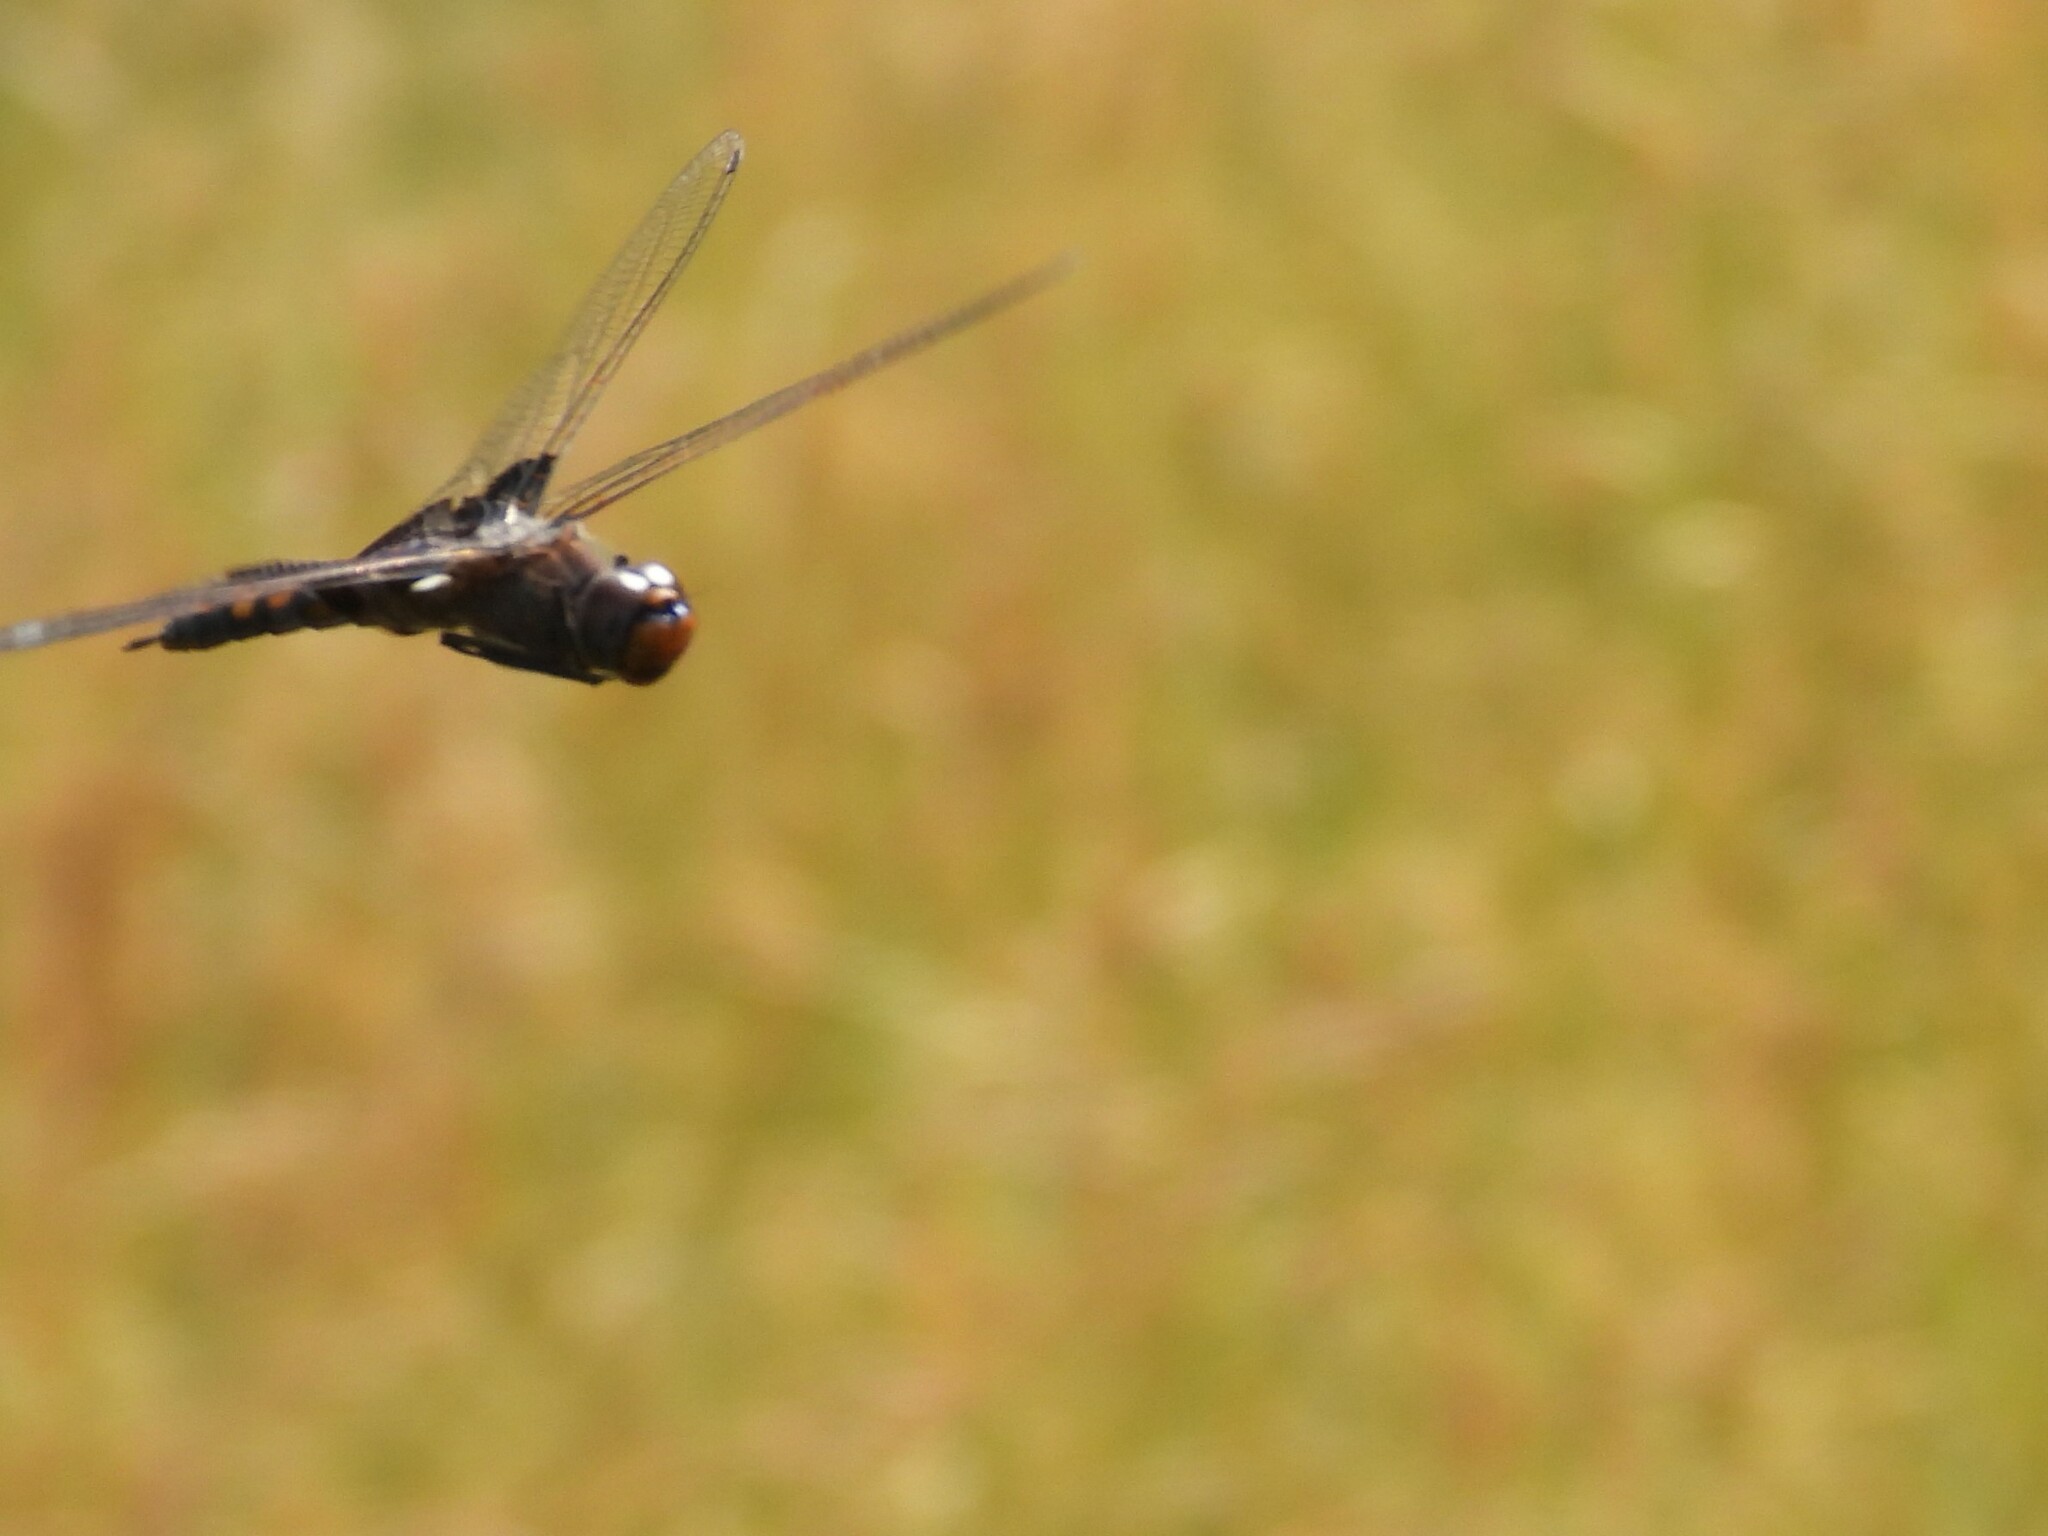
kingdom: Animalia
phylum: Arthropoda
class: Insecta
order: Odonata
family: Libellulidae
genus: Tramea
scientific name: Tramea lacerata
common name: Black saddlebags
